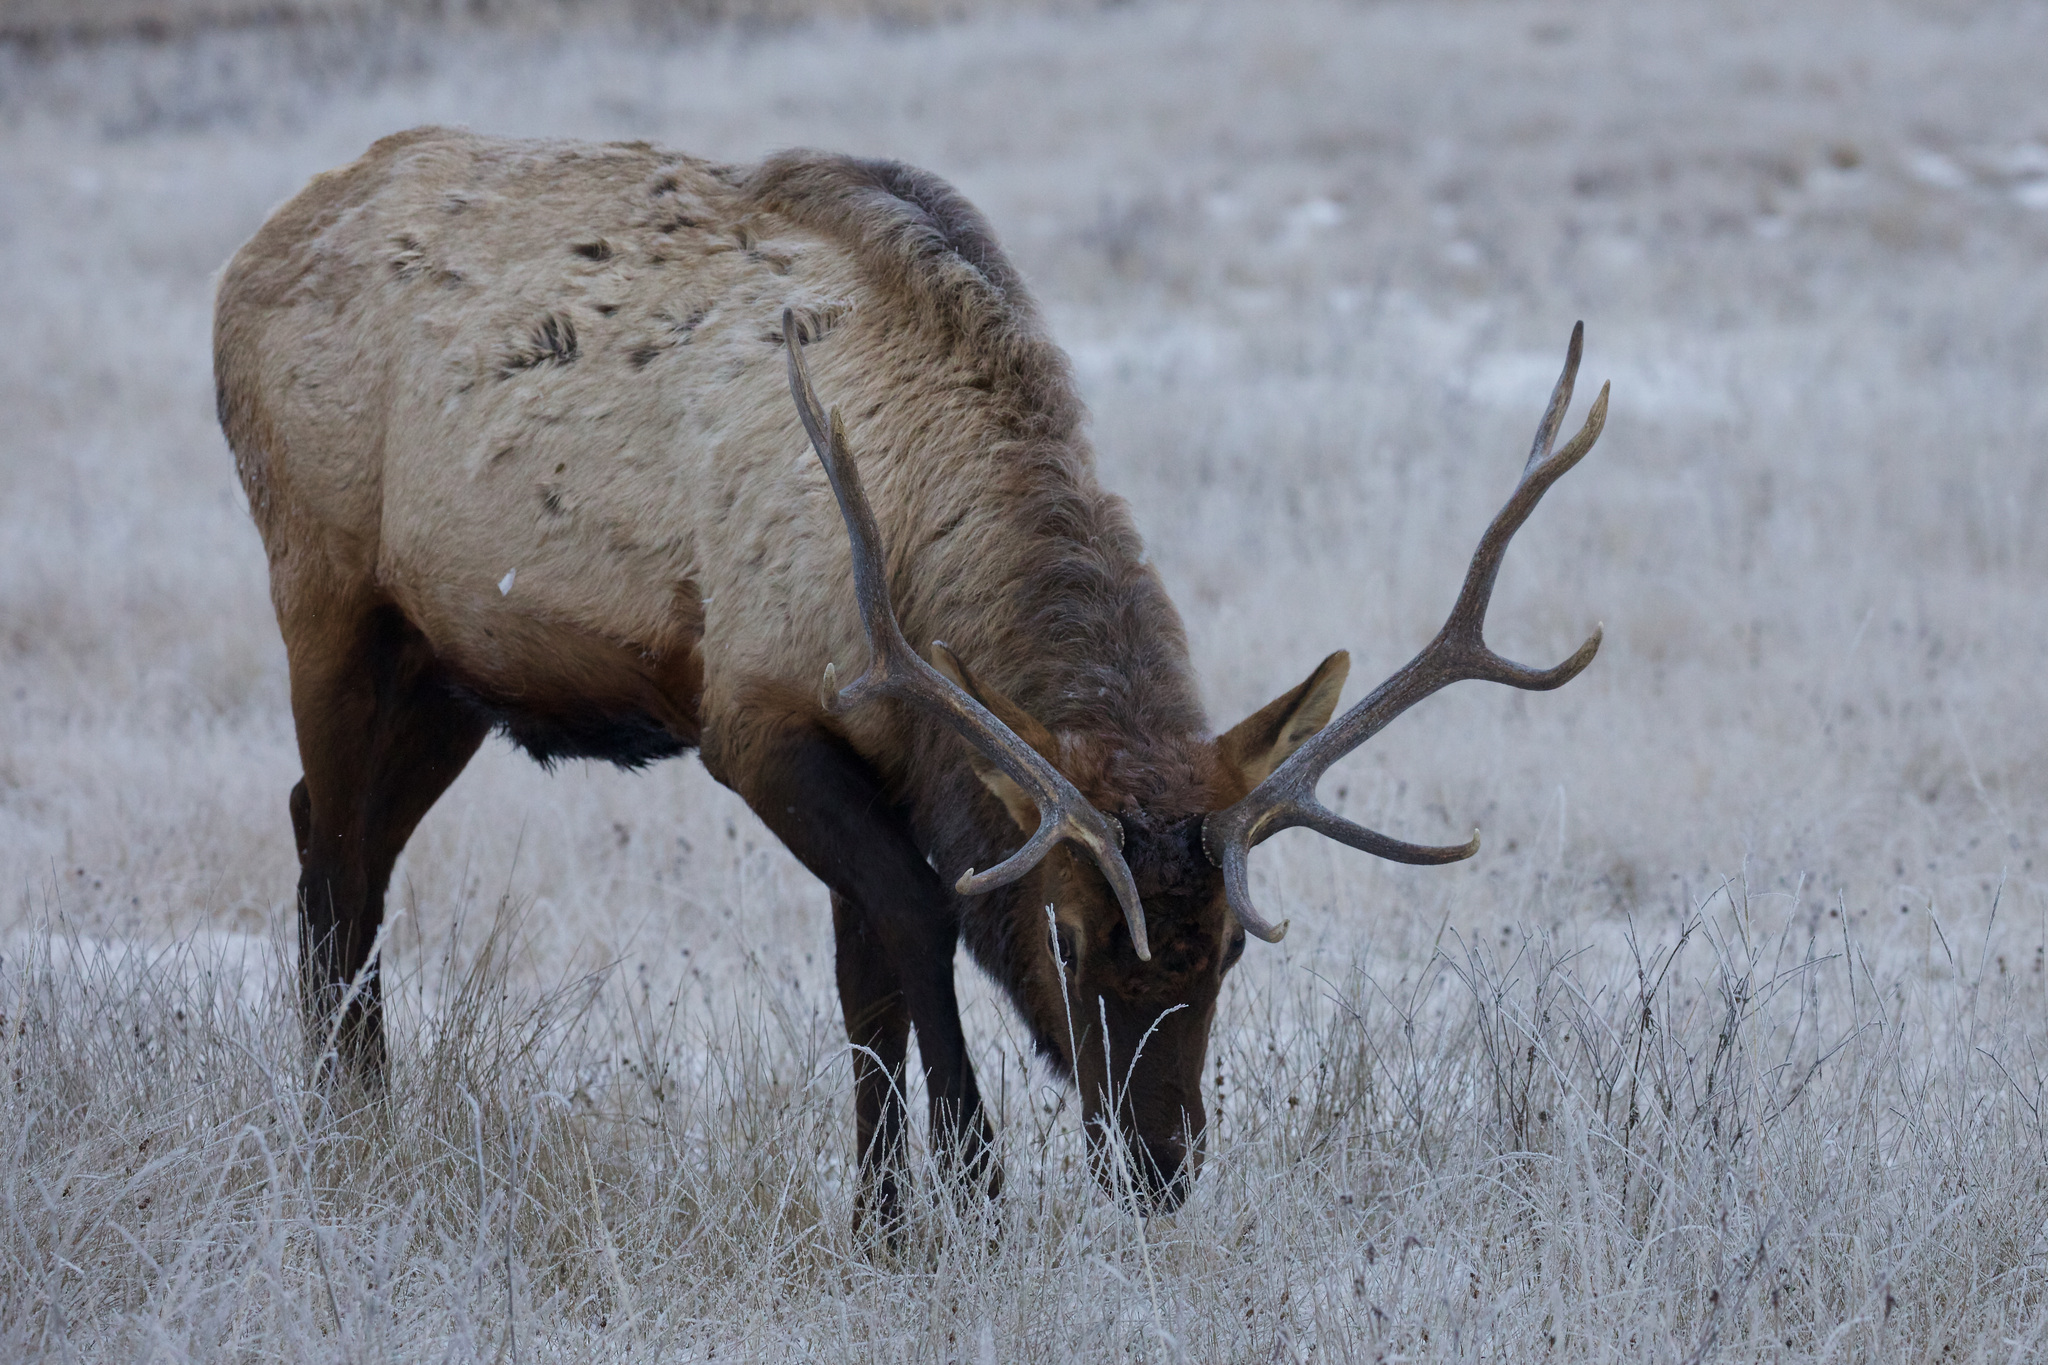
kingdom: Animalia
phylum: Chordata
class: Mammalia
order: Artiodactyla
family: Cervidae
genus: Cervus
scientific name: Cervus elaphus
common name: Red deer
